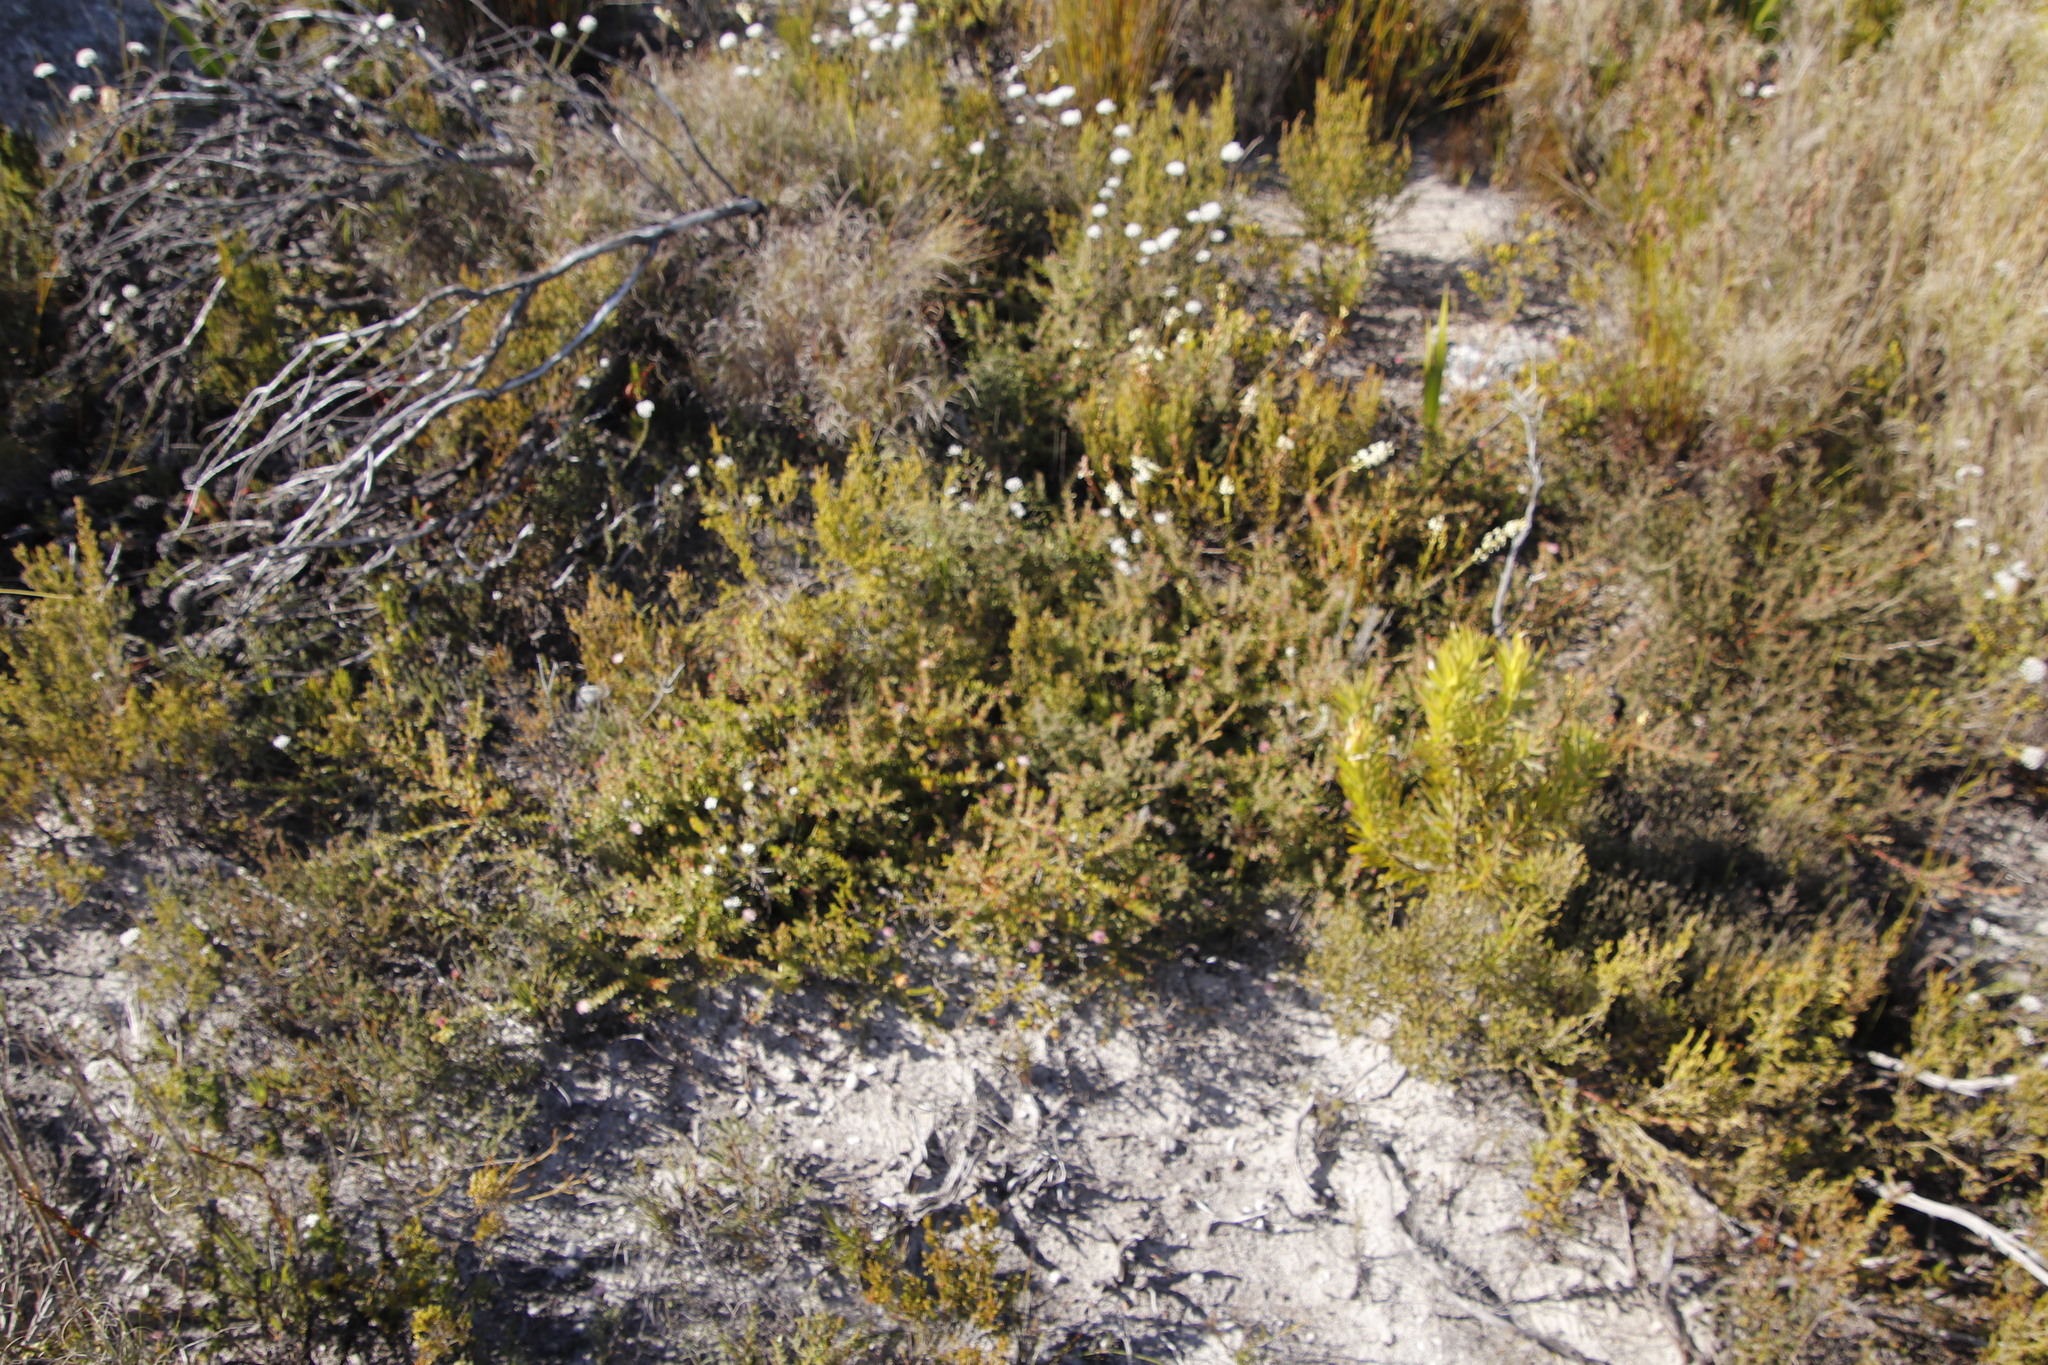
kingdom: Plantae
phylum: Tracheophyta
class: Magnoliopsida
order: Proteales
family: Proteaceae
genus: Diastella
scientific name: Diastella divaricata
